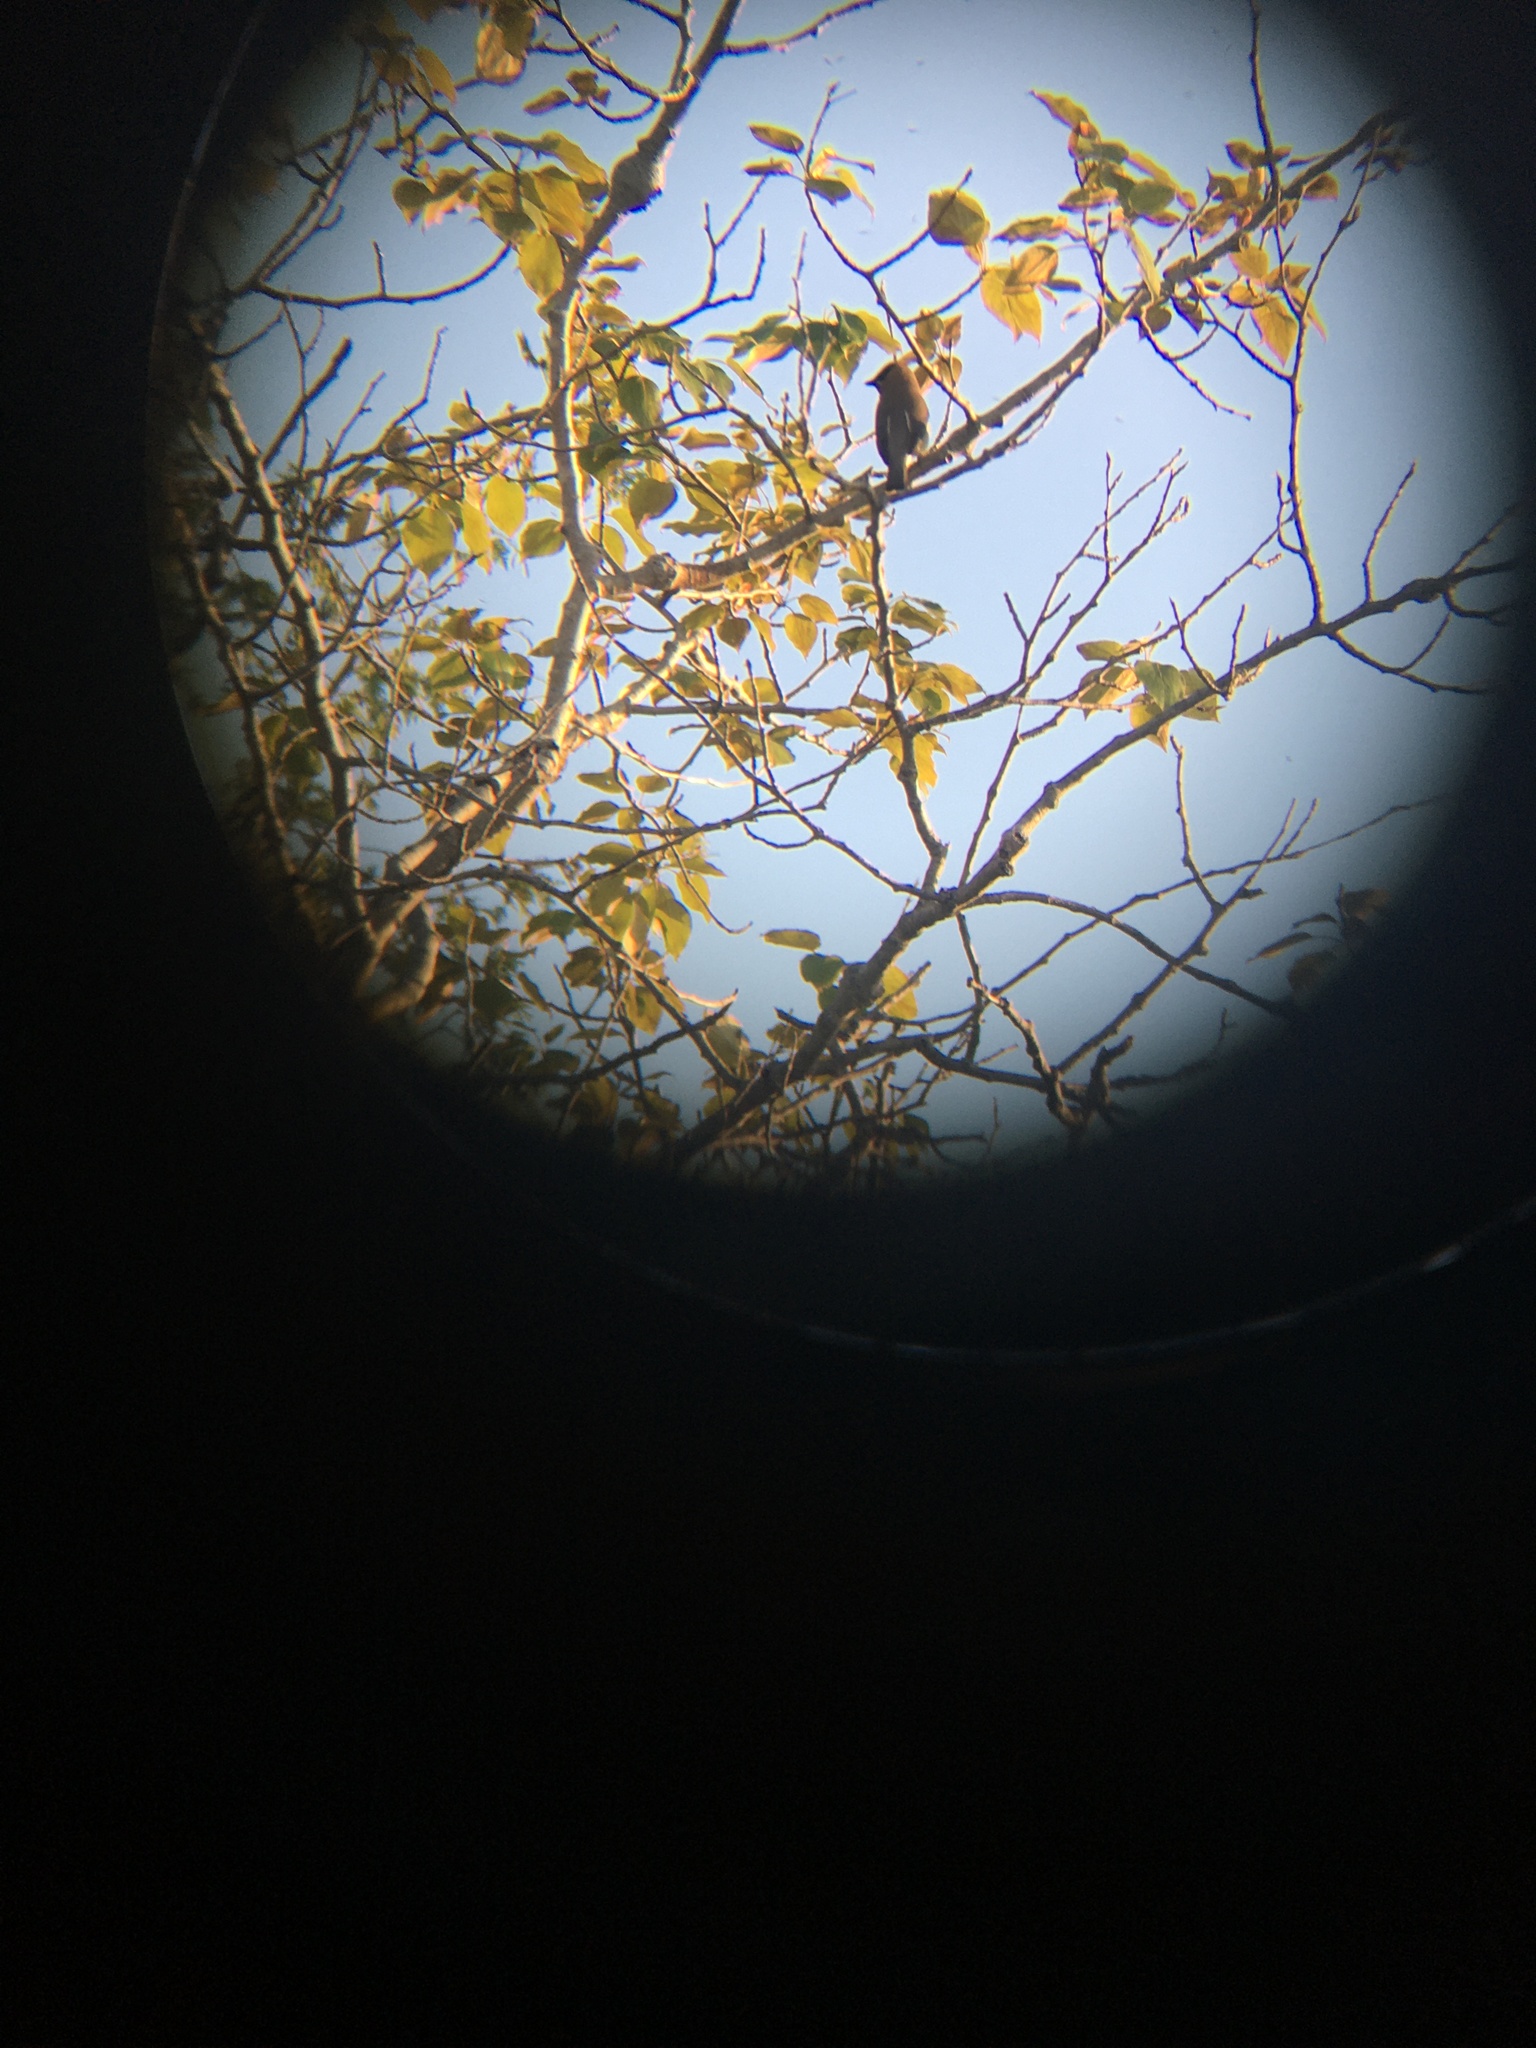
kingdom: Animalia
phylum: Chordata
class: Aves
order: Passeriformes
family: Bombycillidae
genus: Bombycilla
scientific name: Bombycilla cedrorum
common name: Cedar waxwing
